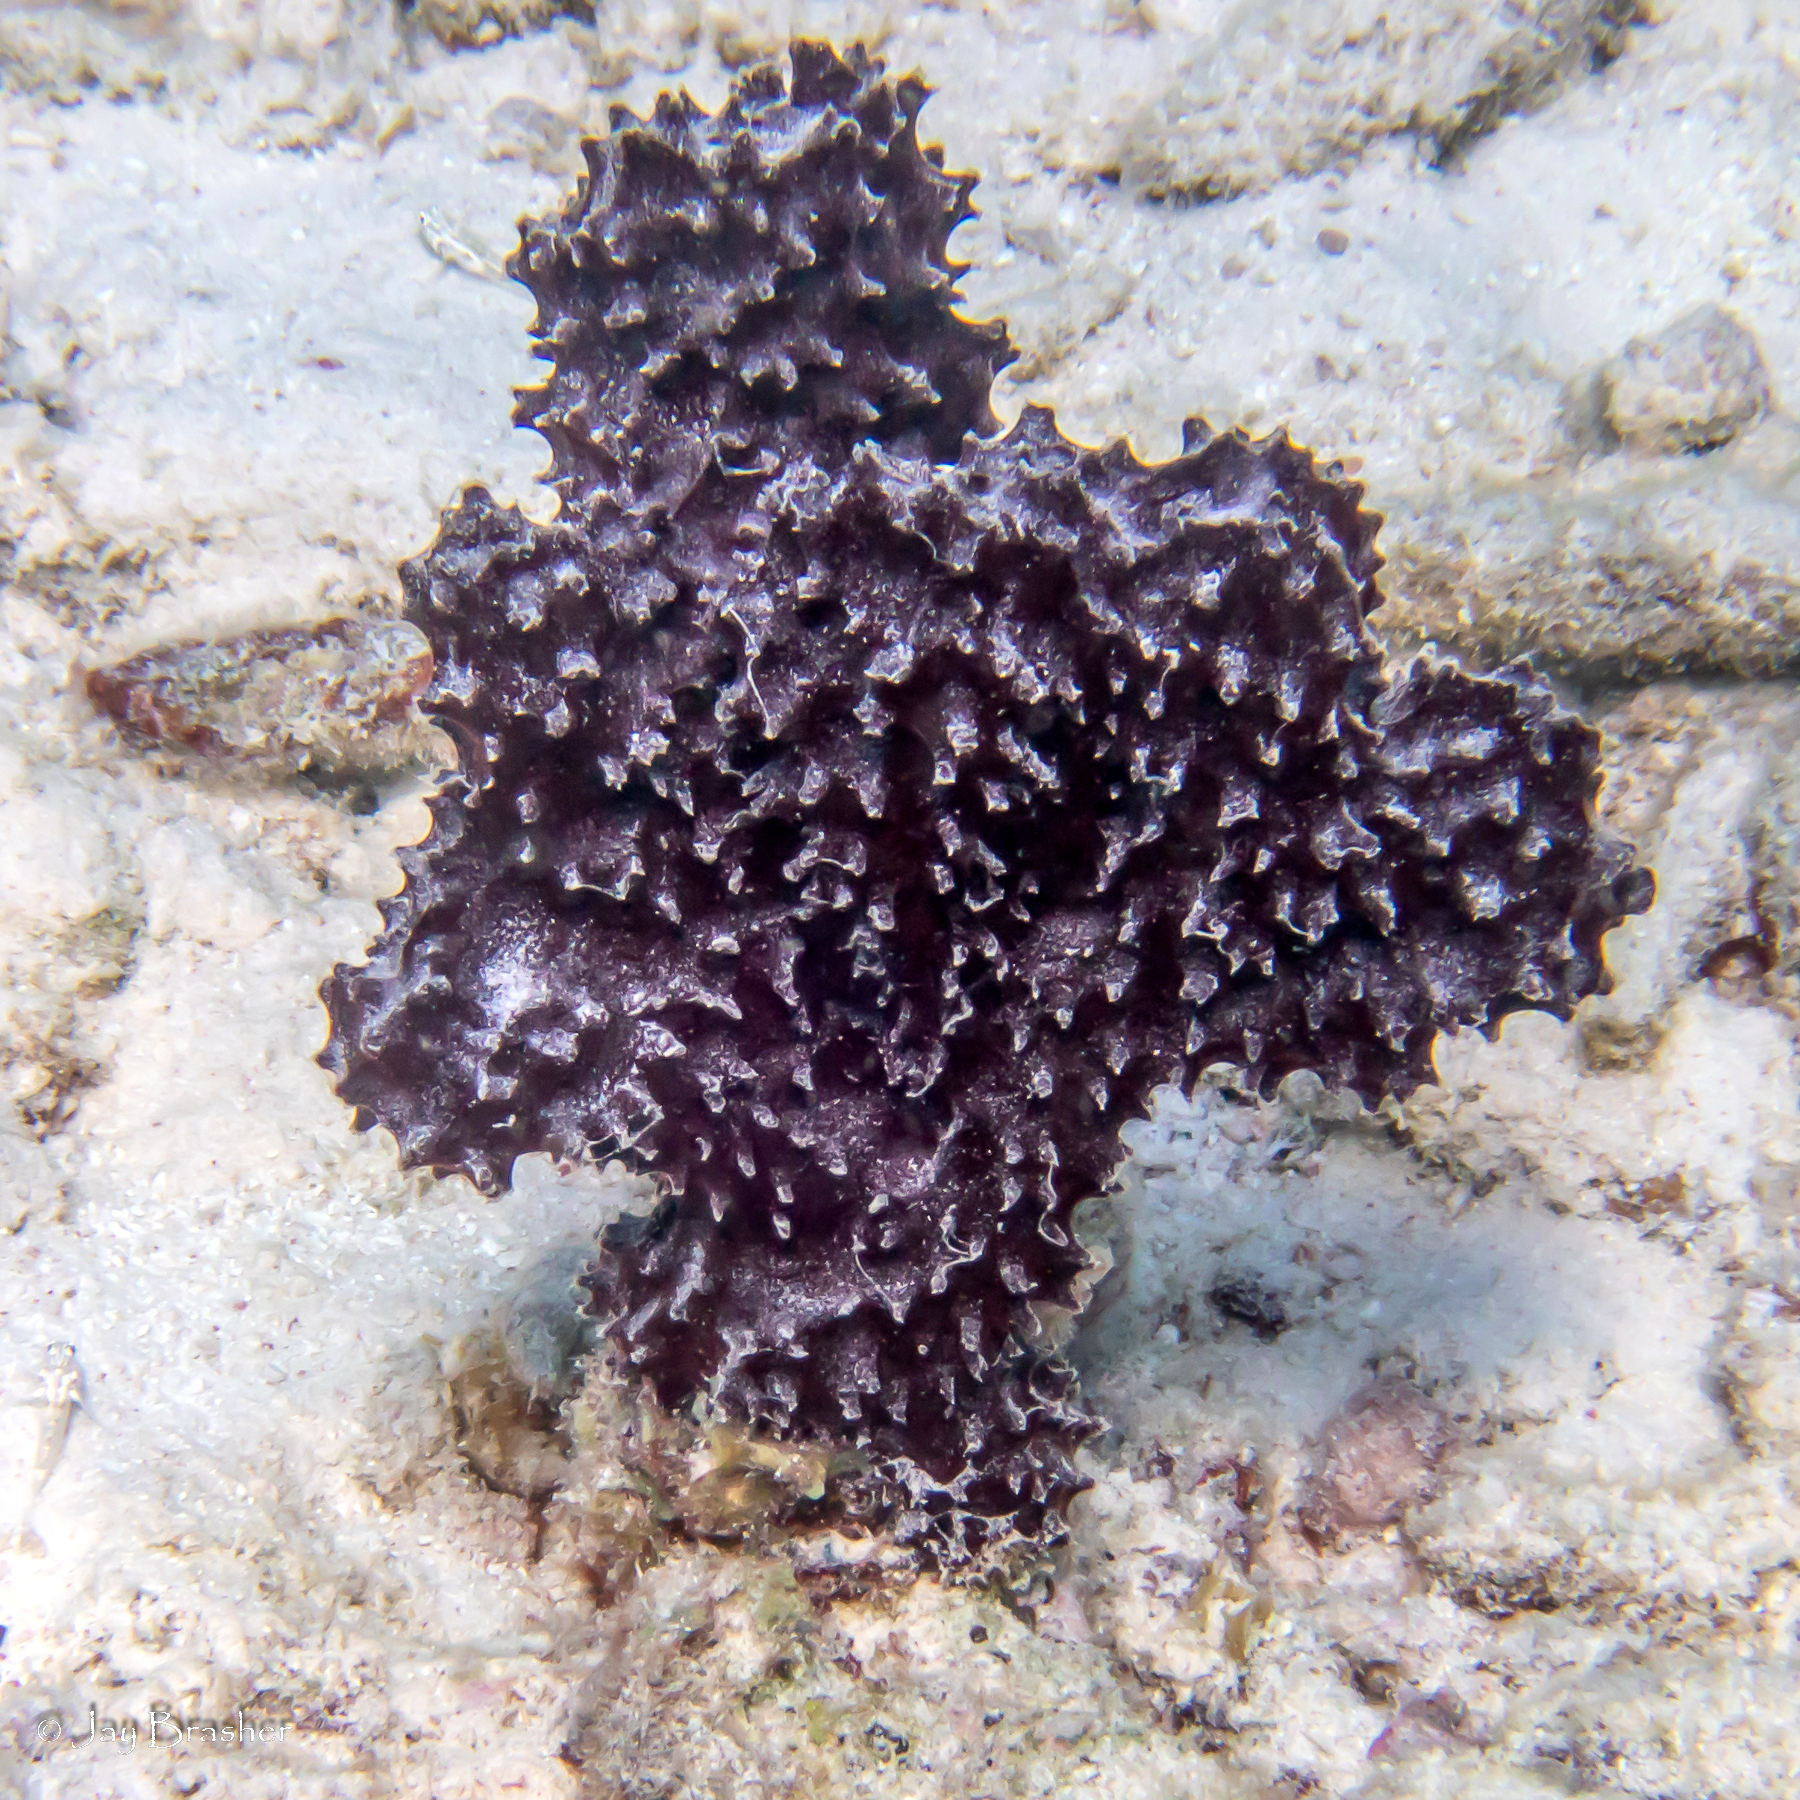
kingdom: Animalia
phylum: Porifera
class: Demospongiae
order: Poecilosclerida
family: Microcionidae
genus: Pandaros
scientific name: Pandaros acanthifolium
